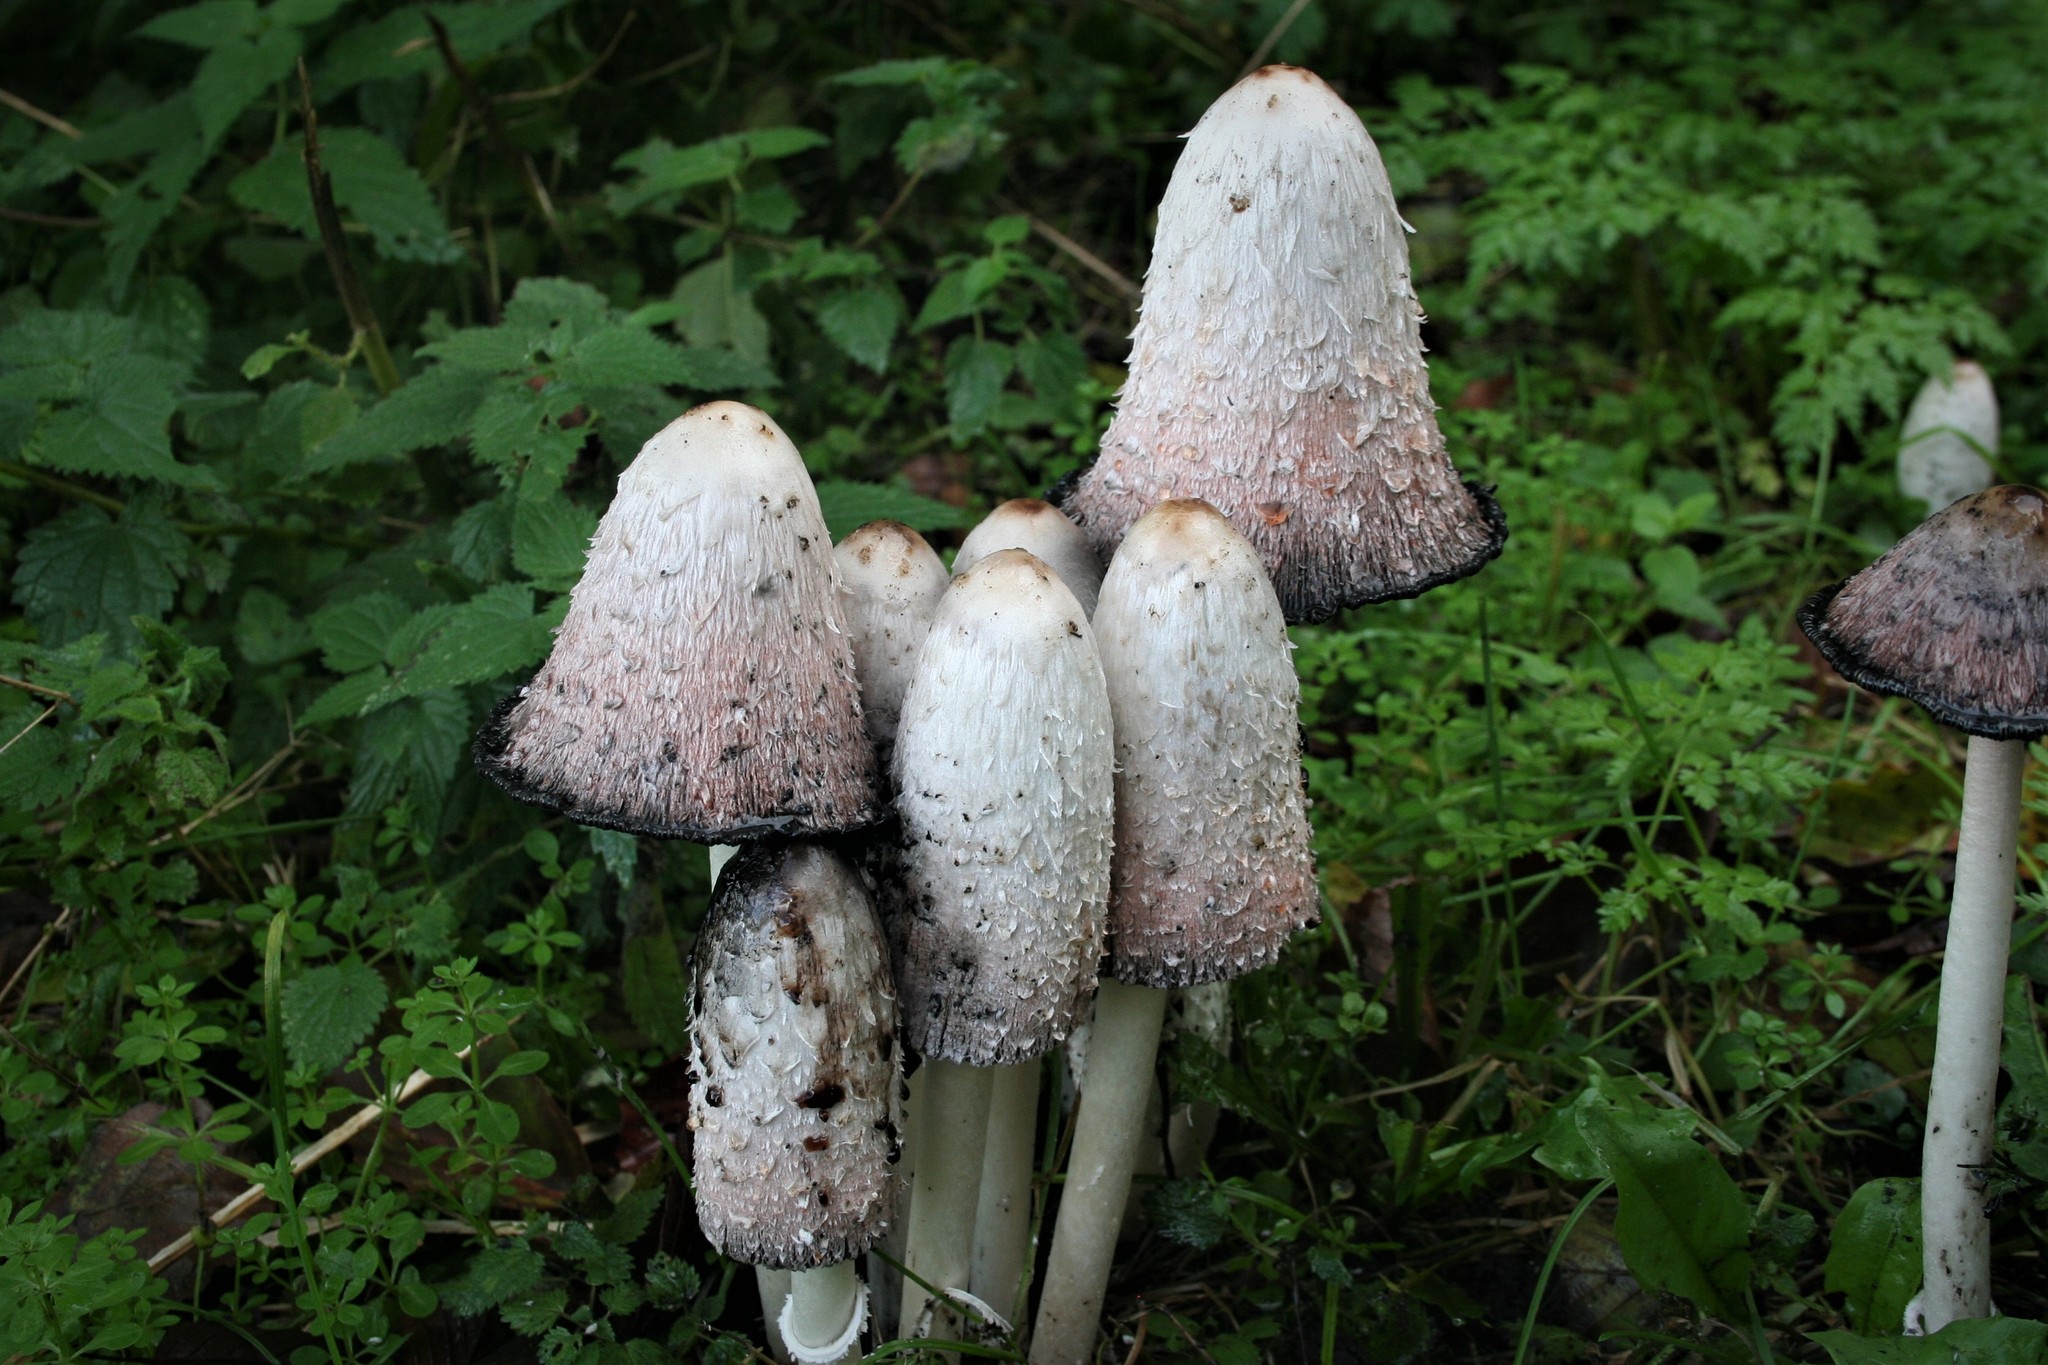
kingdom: Fungi
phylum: Basidiomycota
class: Agaricomycetes
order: Agaricales
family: Agaricaceae
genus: Coprinus
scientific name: Coprinus comatus
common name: Lawyer's wig
